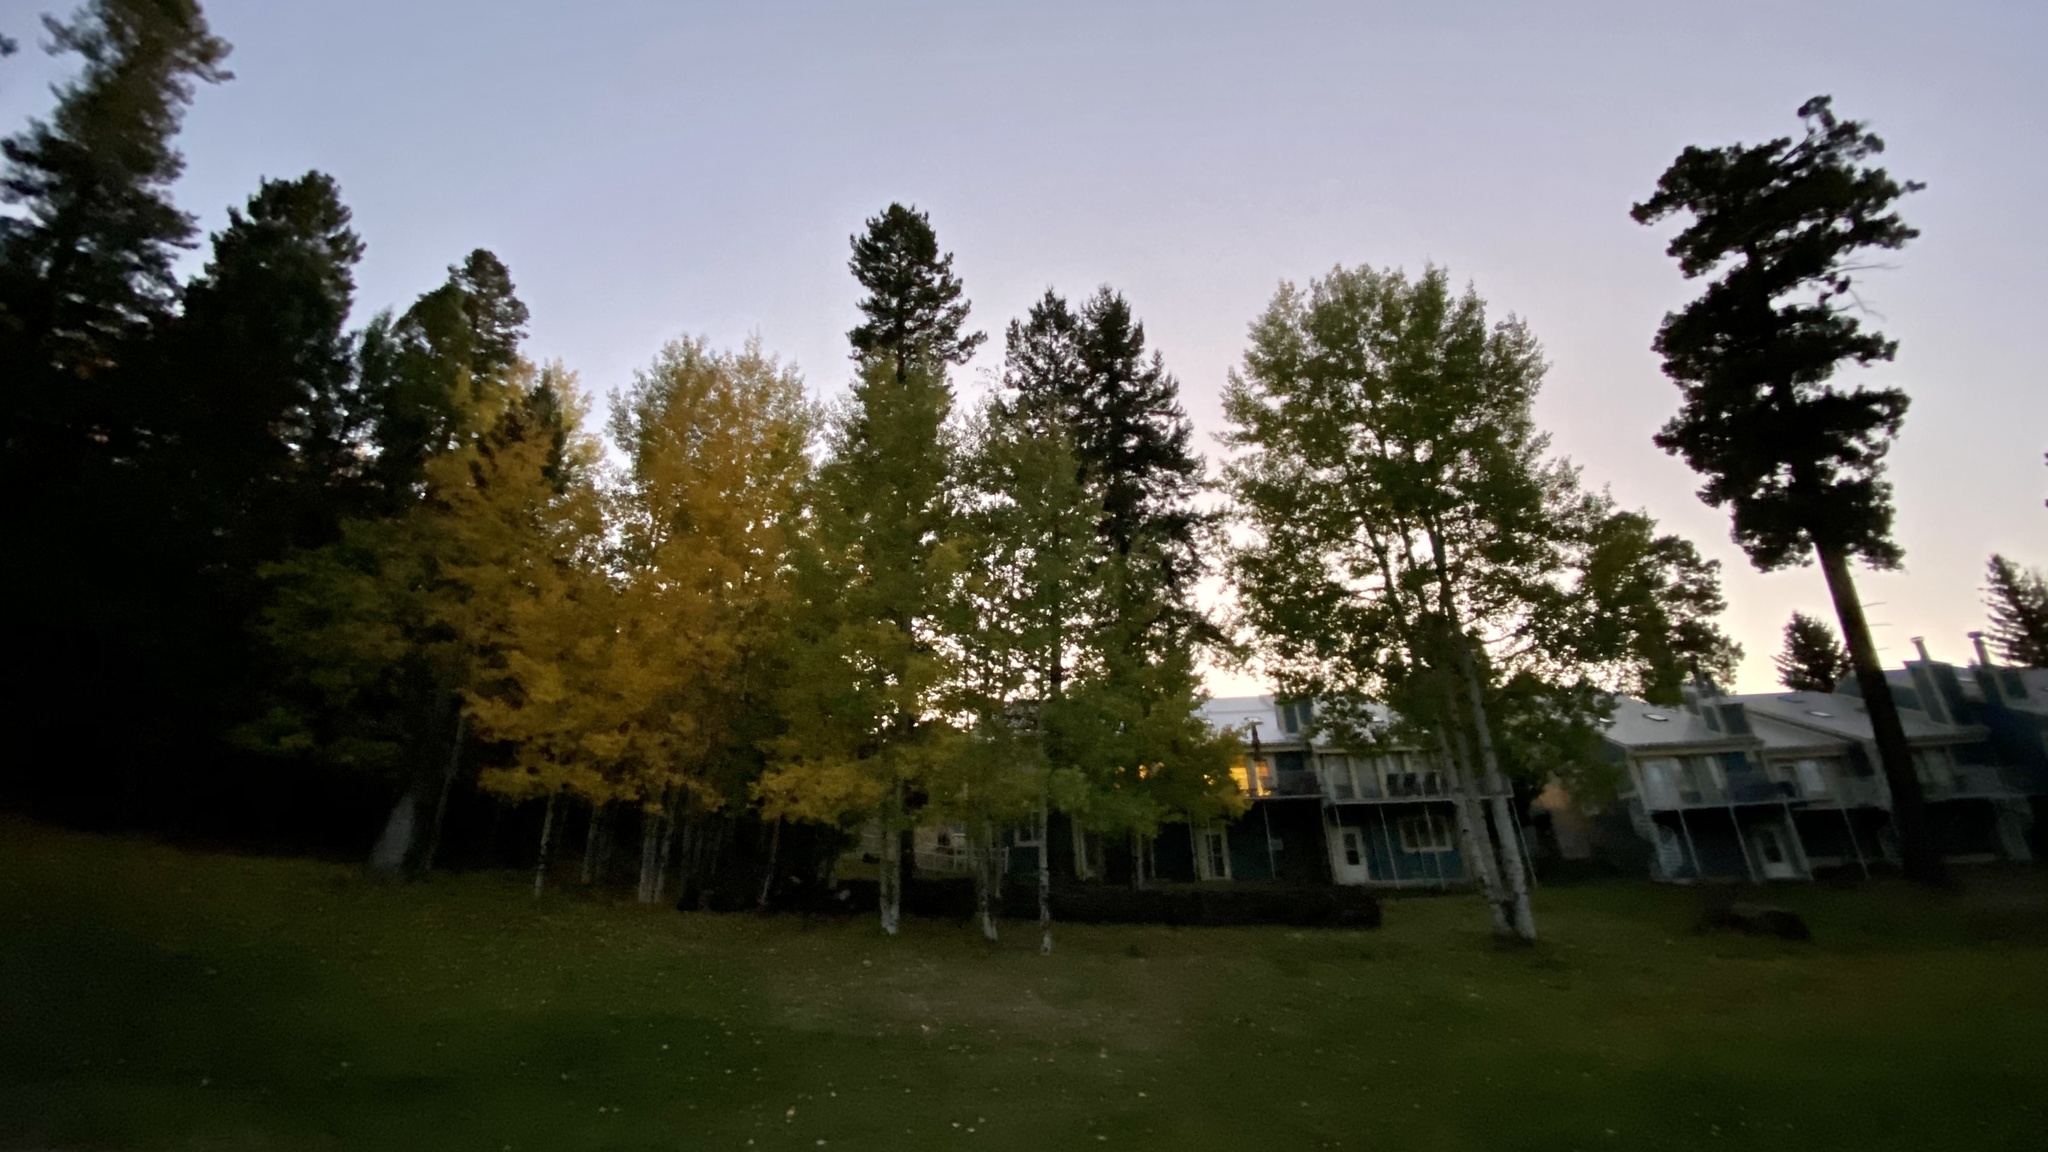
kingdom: Plantae
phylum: Tracheophyta
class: Magnoliopsida
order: Malpighiales
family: Salicaceae
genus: Populus
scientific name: Populus tremuloides
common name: Quaking aspen
